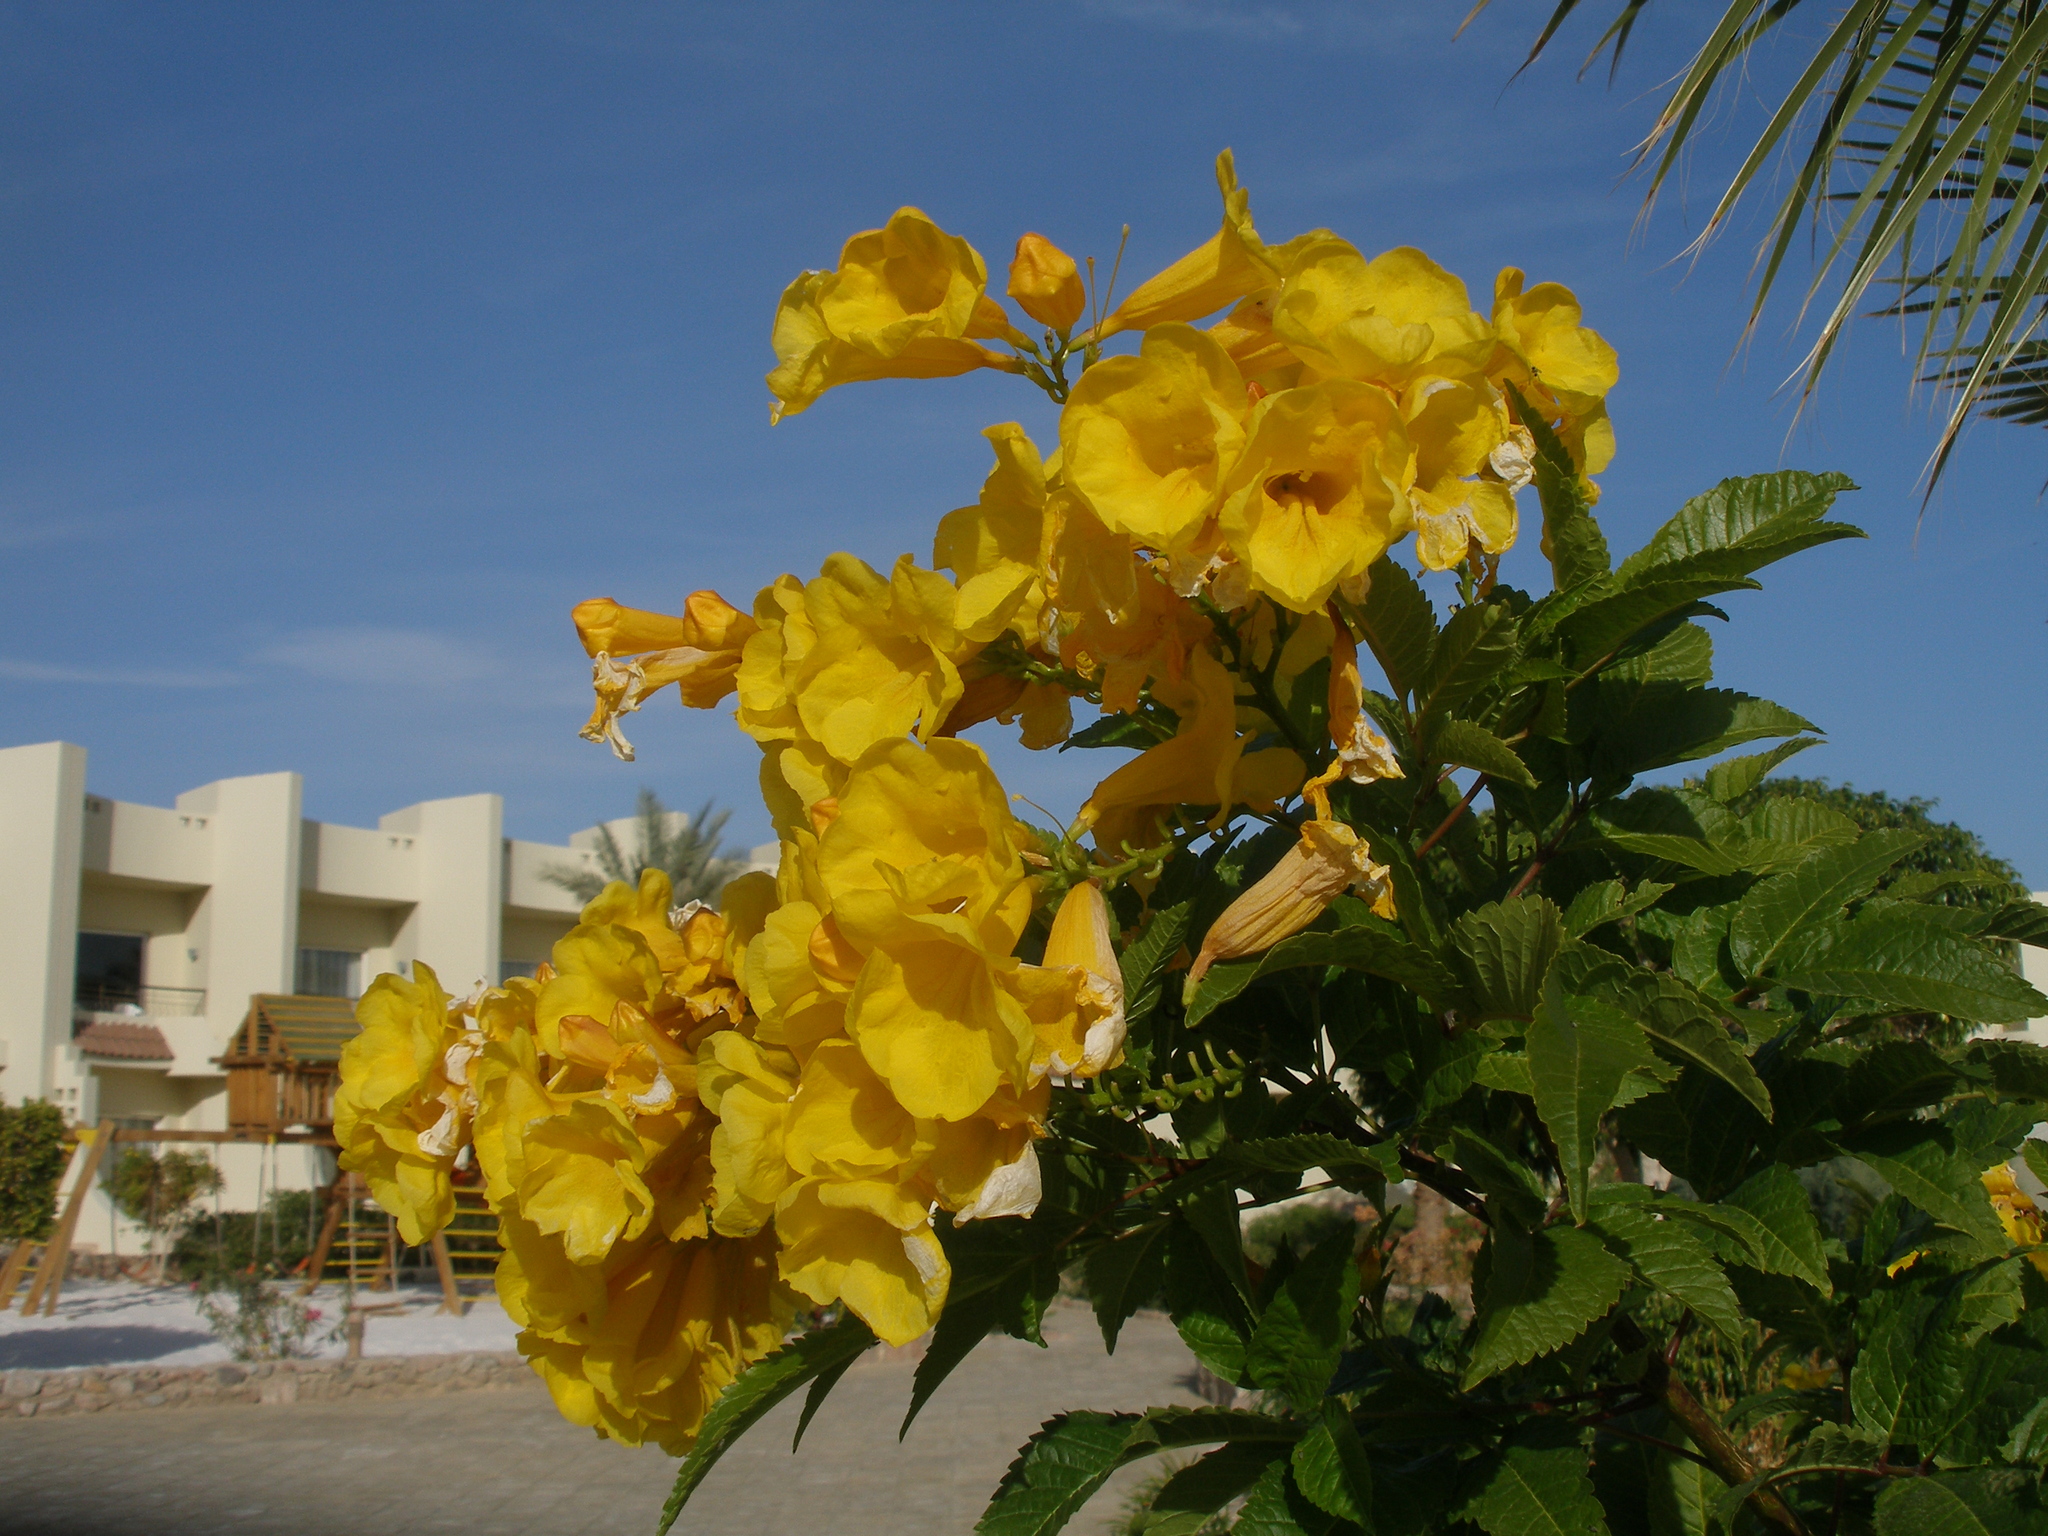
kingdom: Plantae
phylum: Tracheophyta
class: Magnoliopsida
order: Lamiales
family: Bignoniaceae
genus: Tecoma
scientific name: Tecoma stans
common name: Yellow trumpetbush
